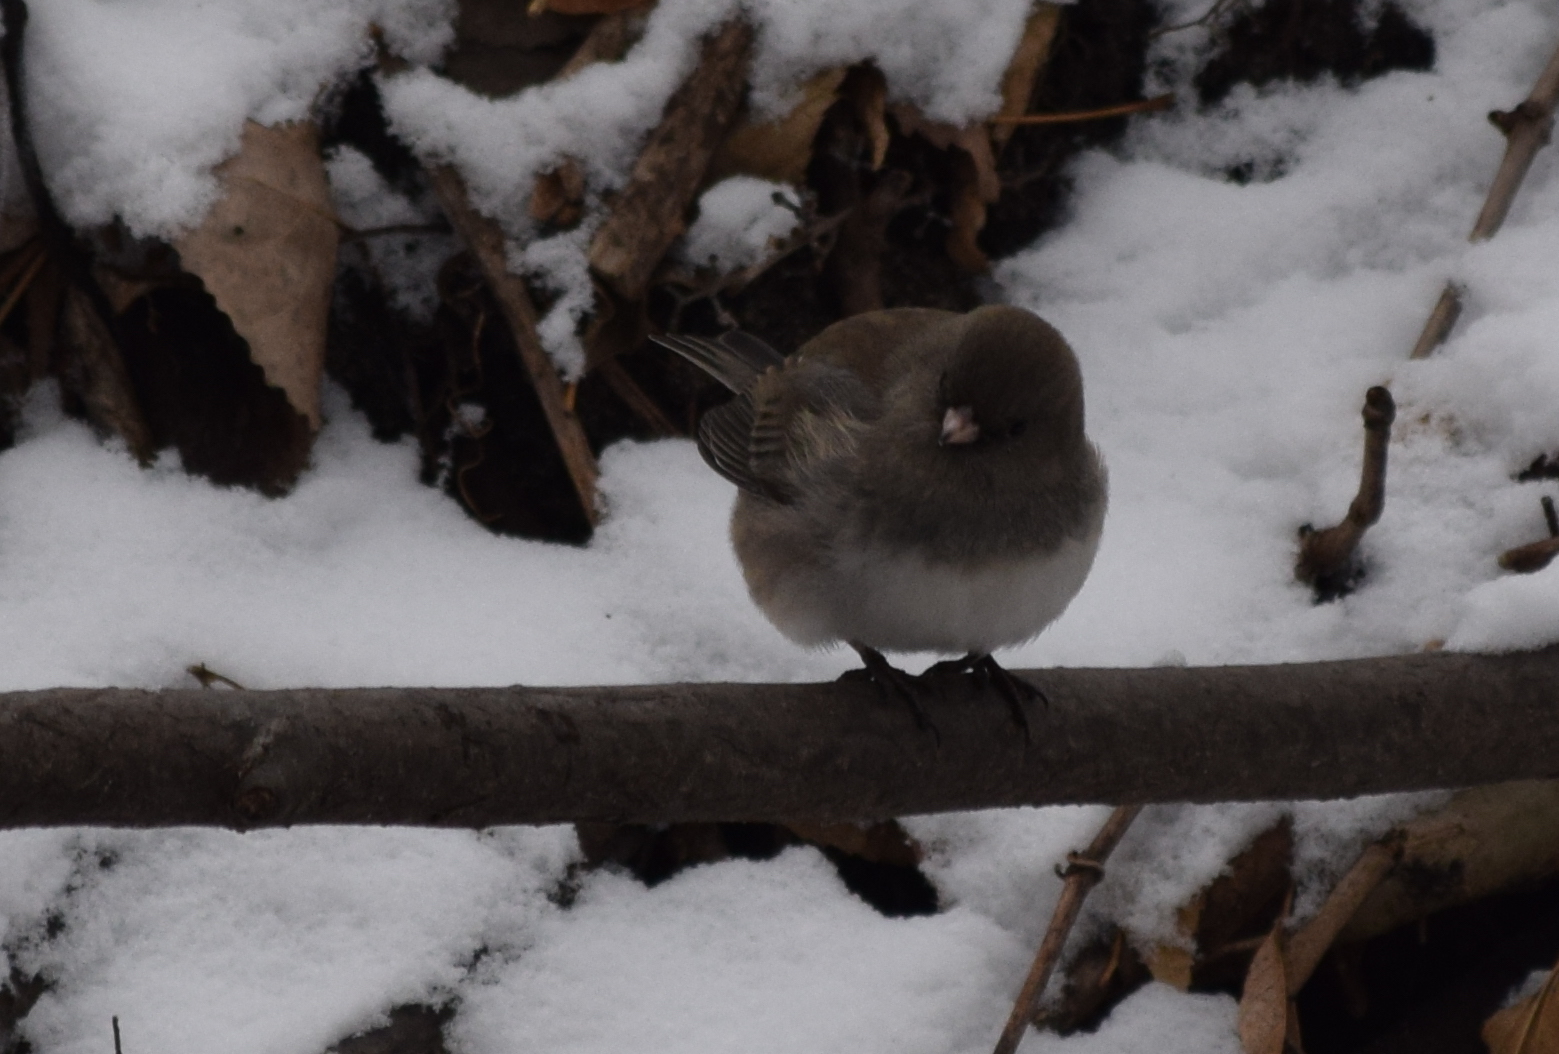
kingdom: Animalia
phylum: Chordata
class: Aves
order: Passeriformes
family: Passerellidae
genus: Junco
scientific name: Junco hyemalis
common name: Dark-eyed junco
